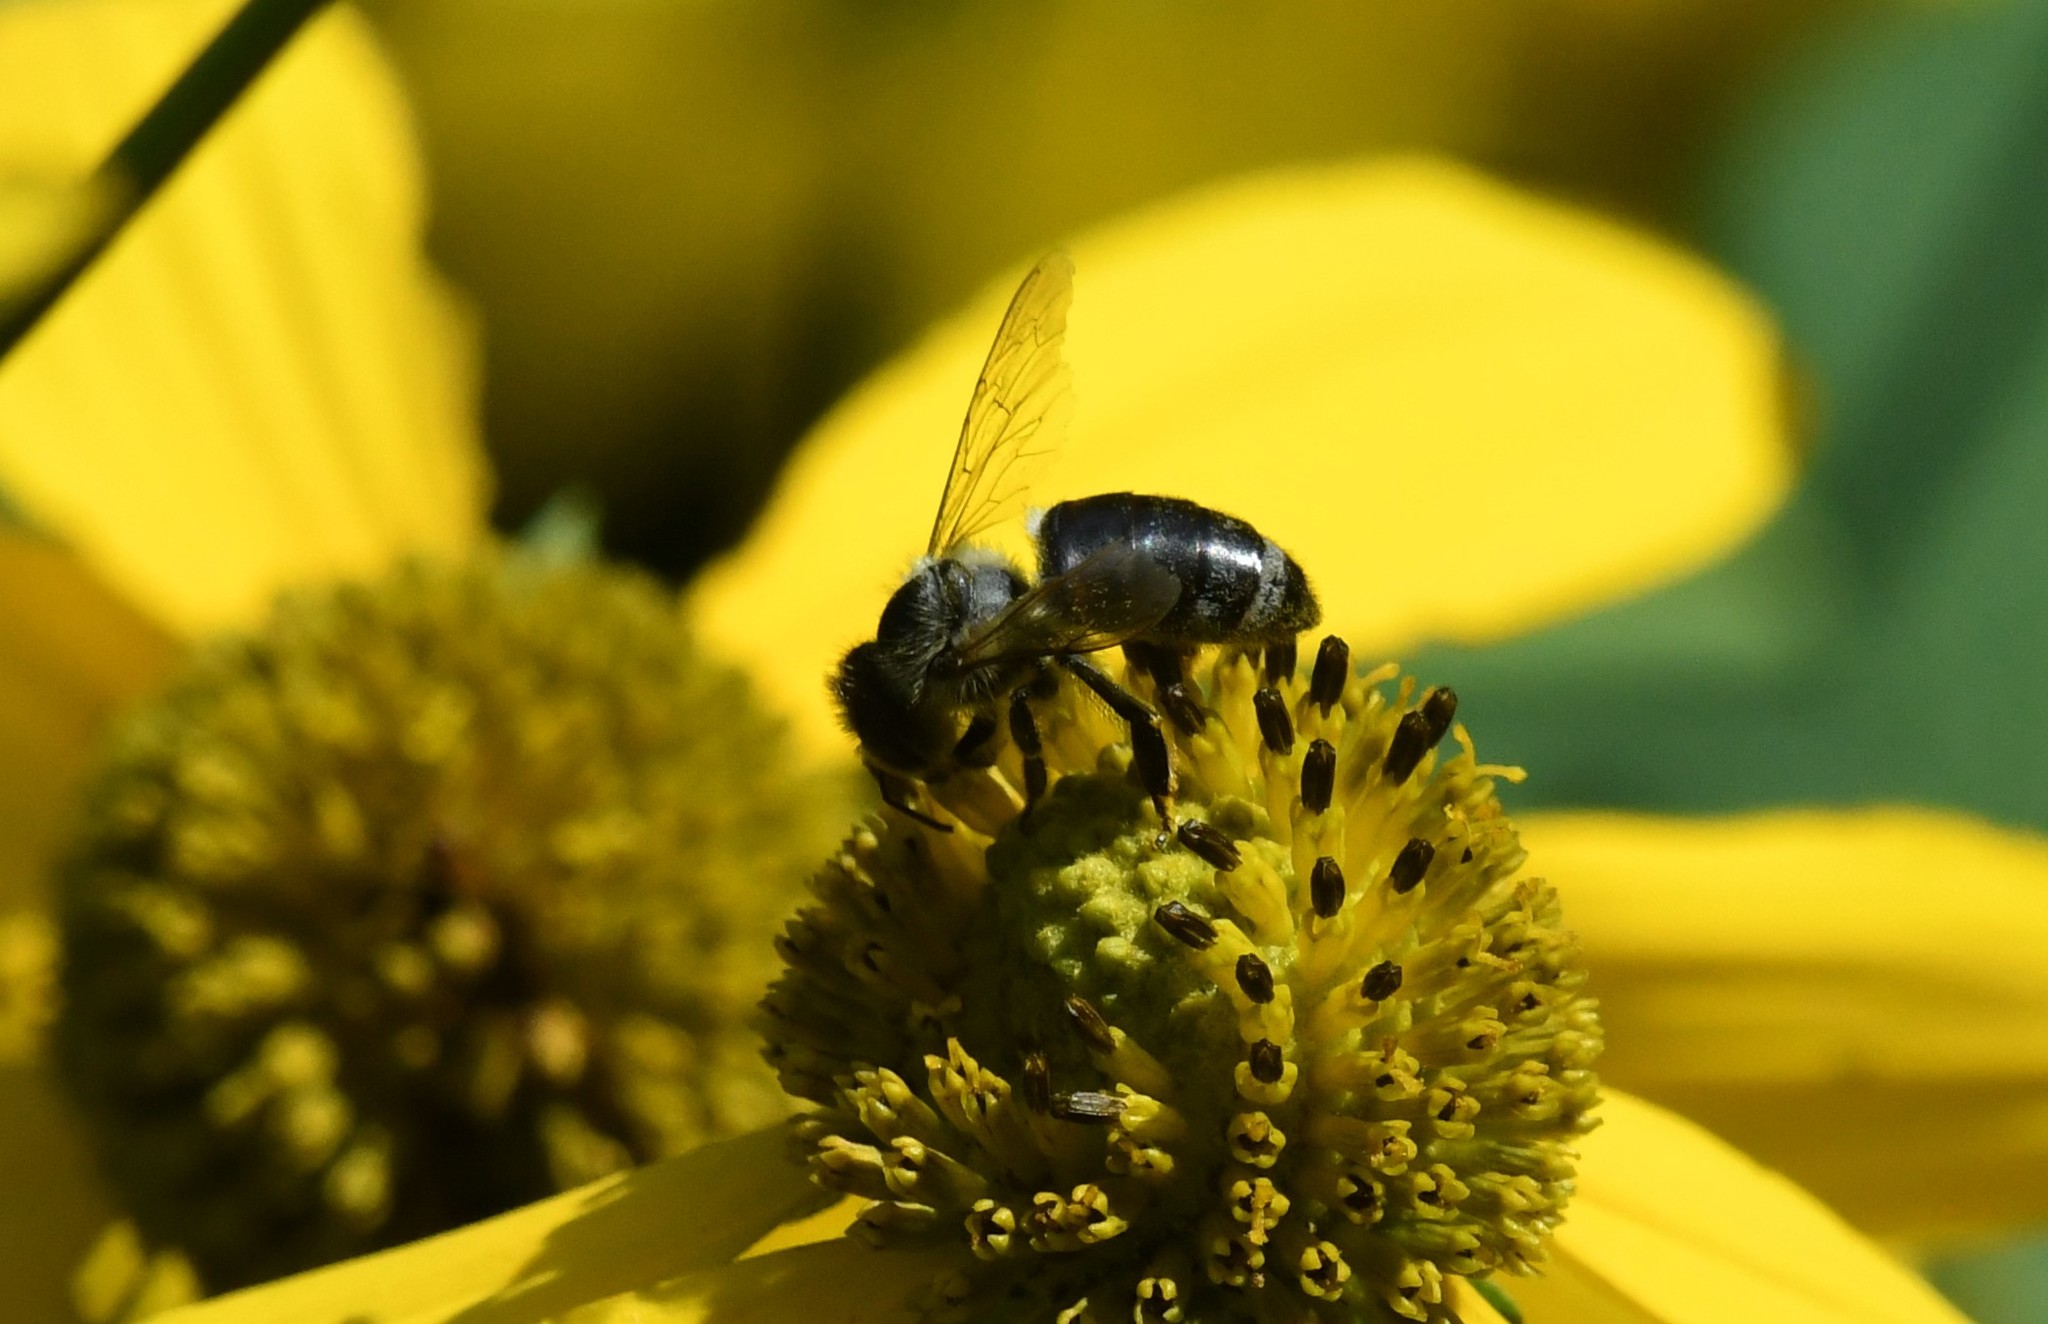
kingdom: Animalia
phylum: Arthropoda
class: Insecta
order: Hymenoptera
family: Apidae
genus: Apis
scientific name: Apis mellifera
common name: Honey bee
